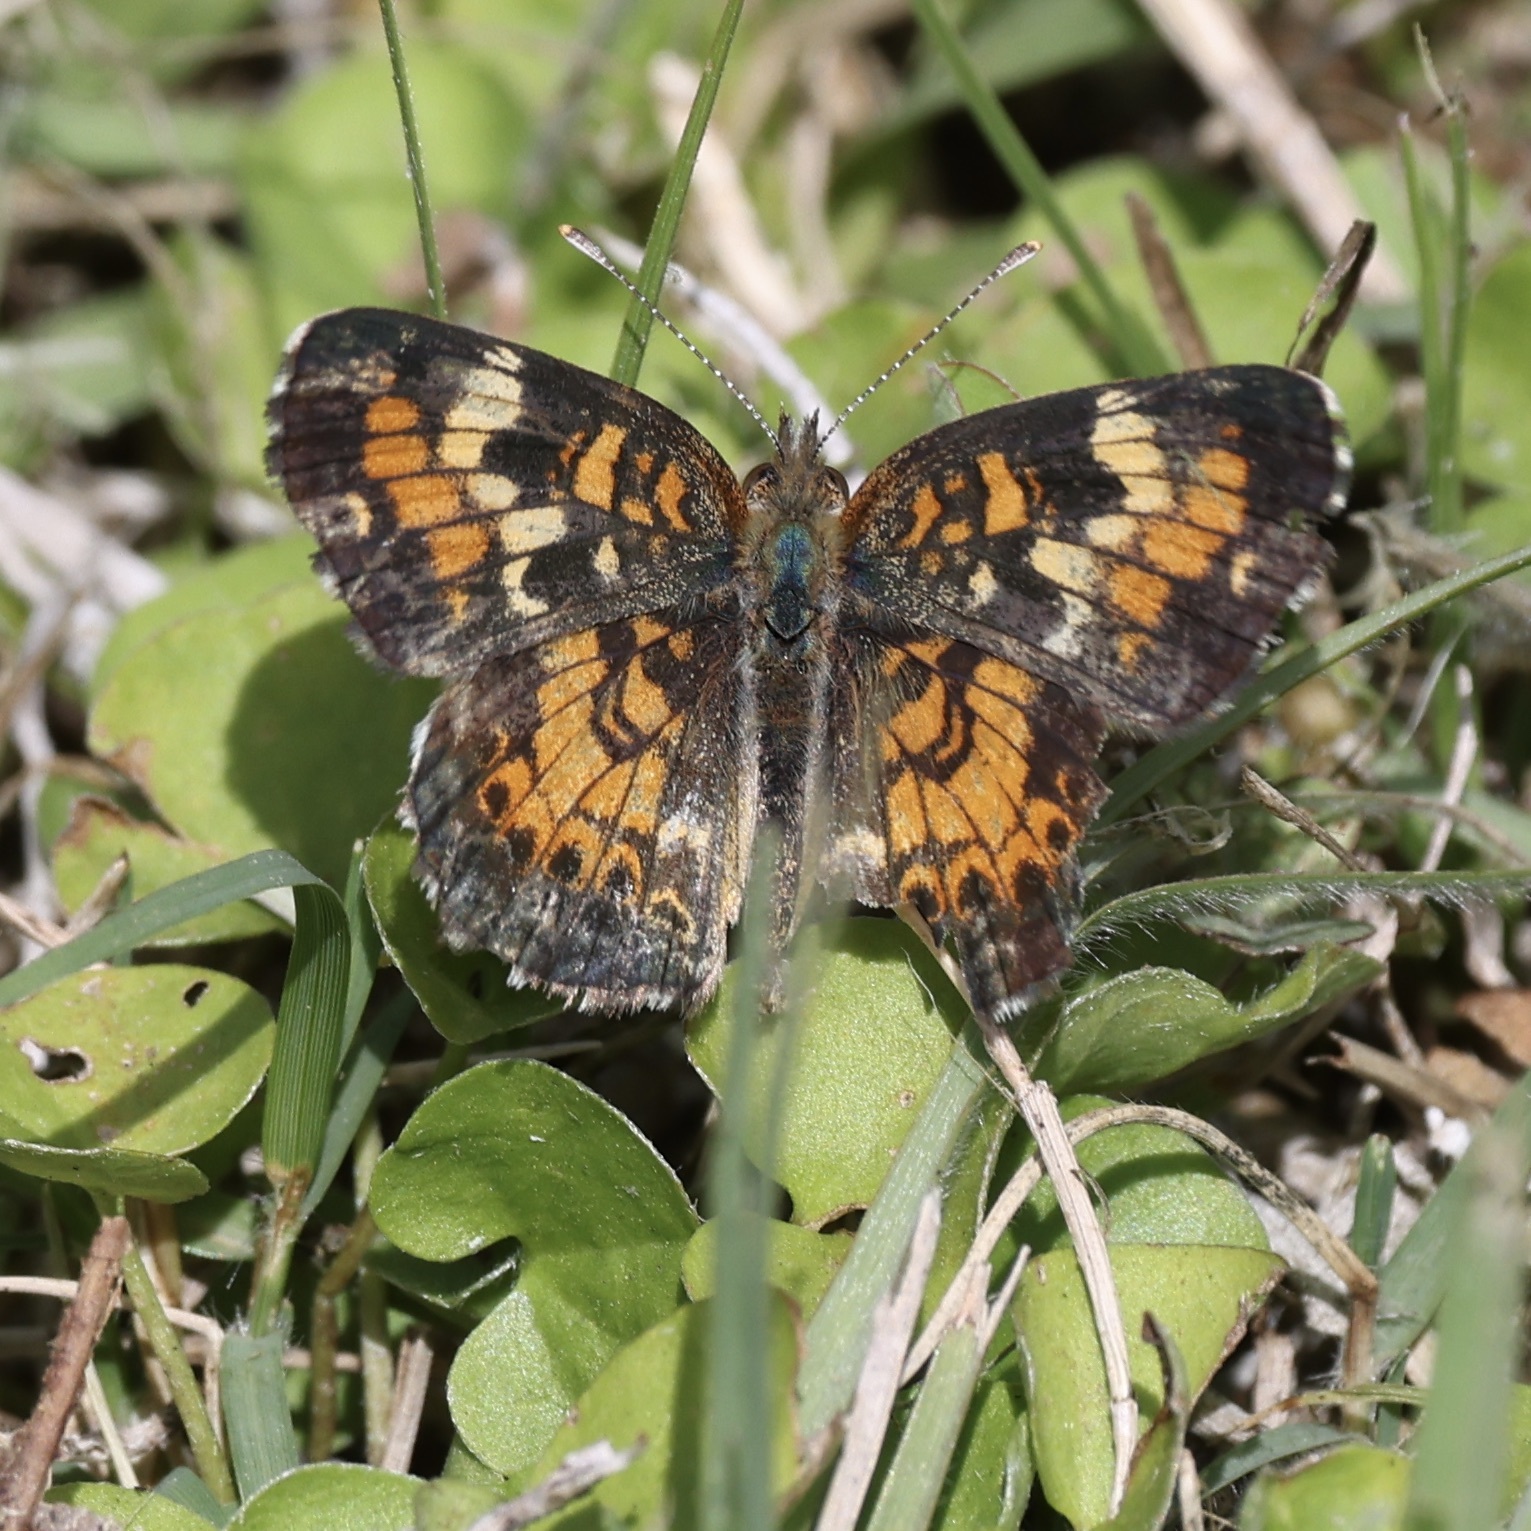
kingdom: Animalia
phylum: Arthropoda
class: Insecta
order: Lepidoptera
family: Nymphalidae
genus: Phyciodes
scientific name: Phyciodes phaon
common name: Phaon crescent
